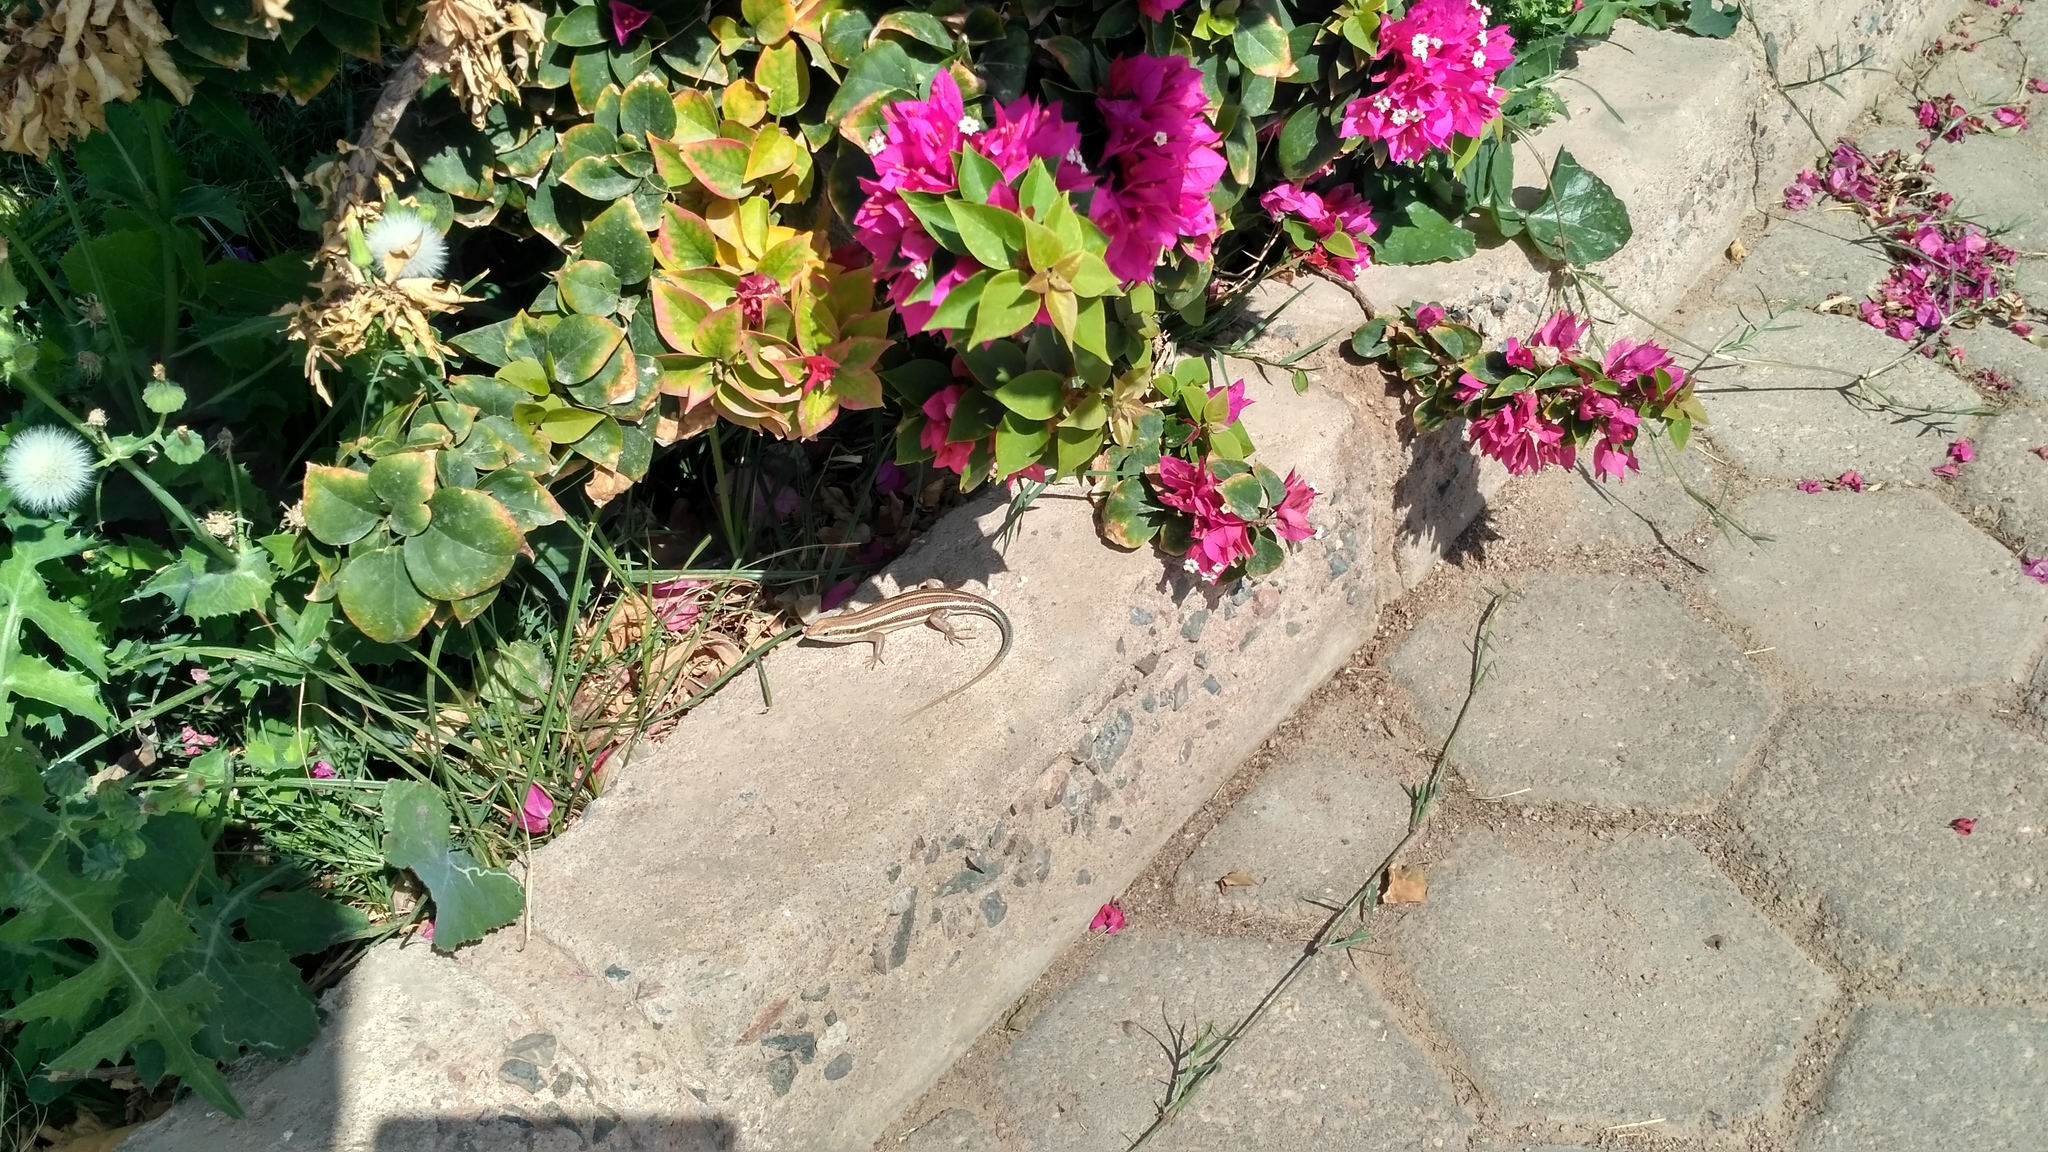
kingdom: Animalia
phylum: Chordata
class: Squamata
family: Scincidae
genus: Trachylepis
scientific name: Trachylepis quinquetaeniata
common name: African five-lined skink
